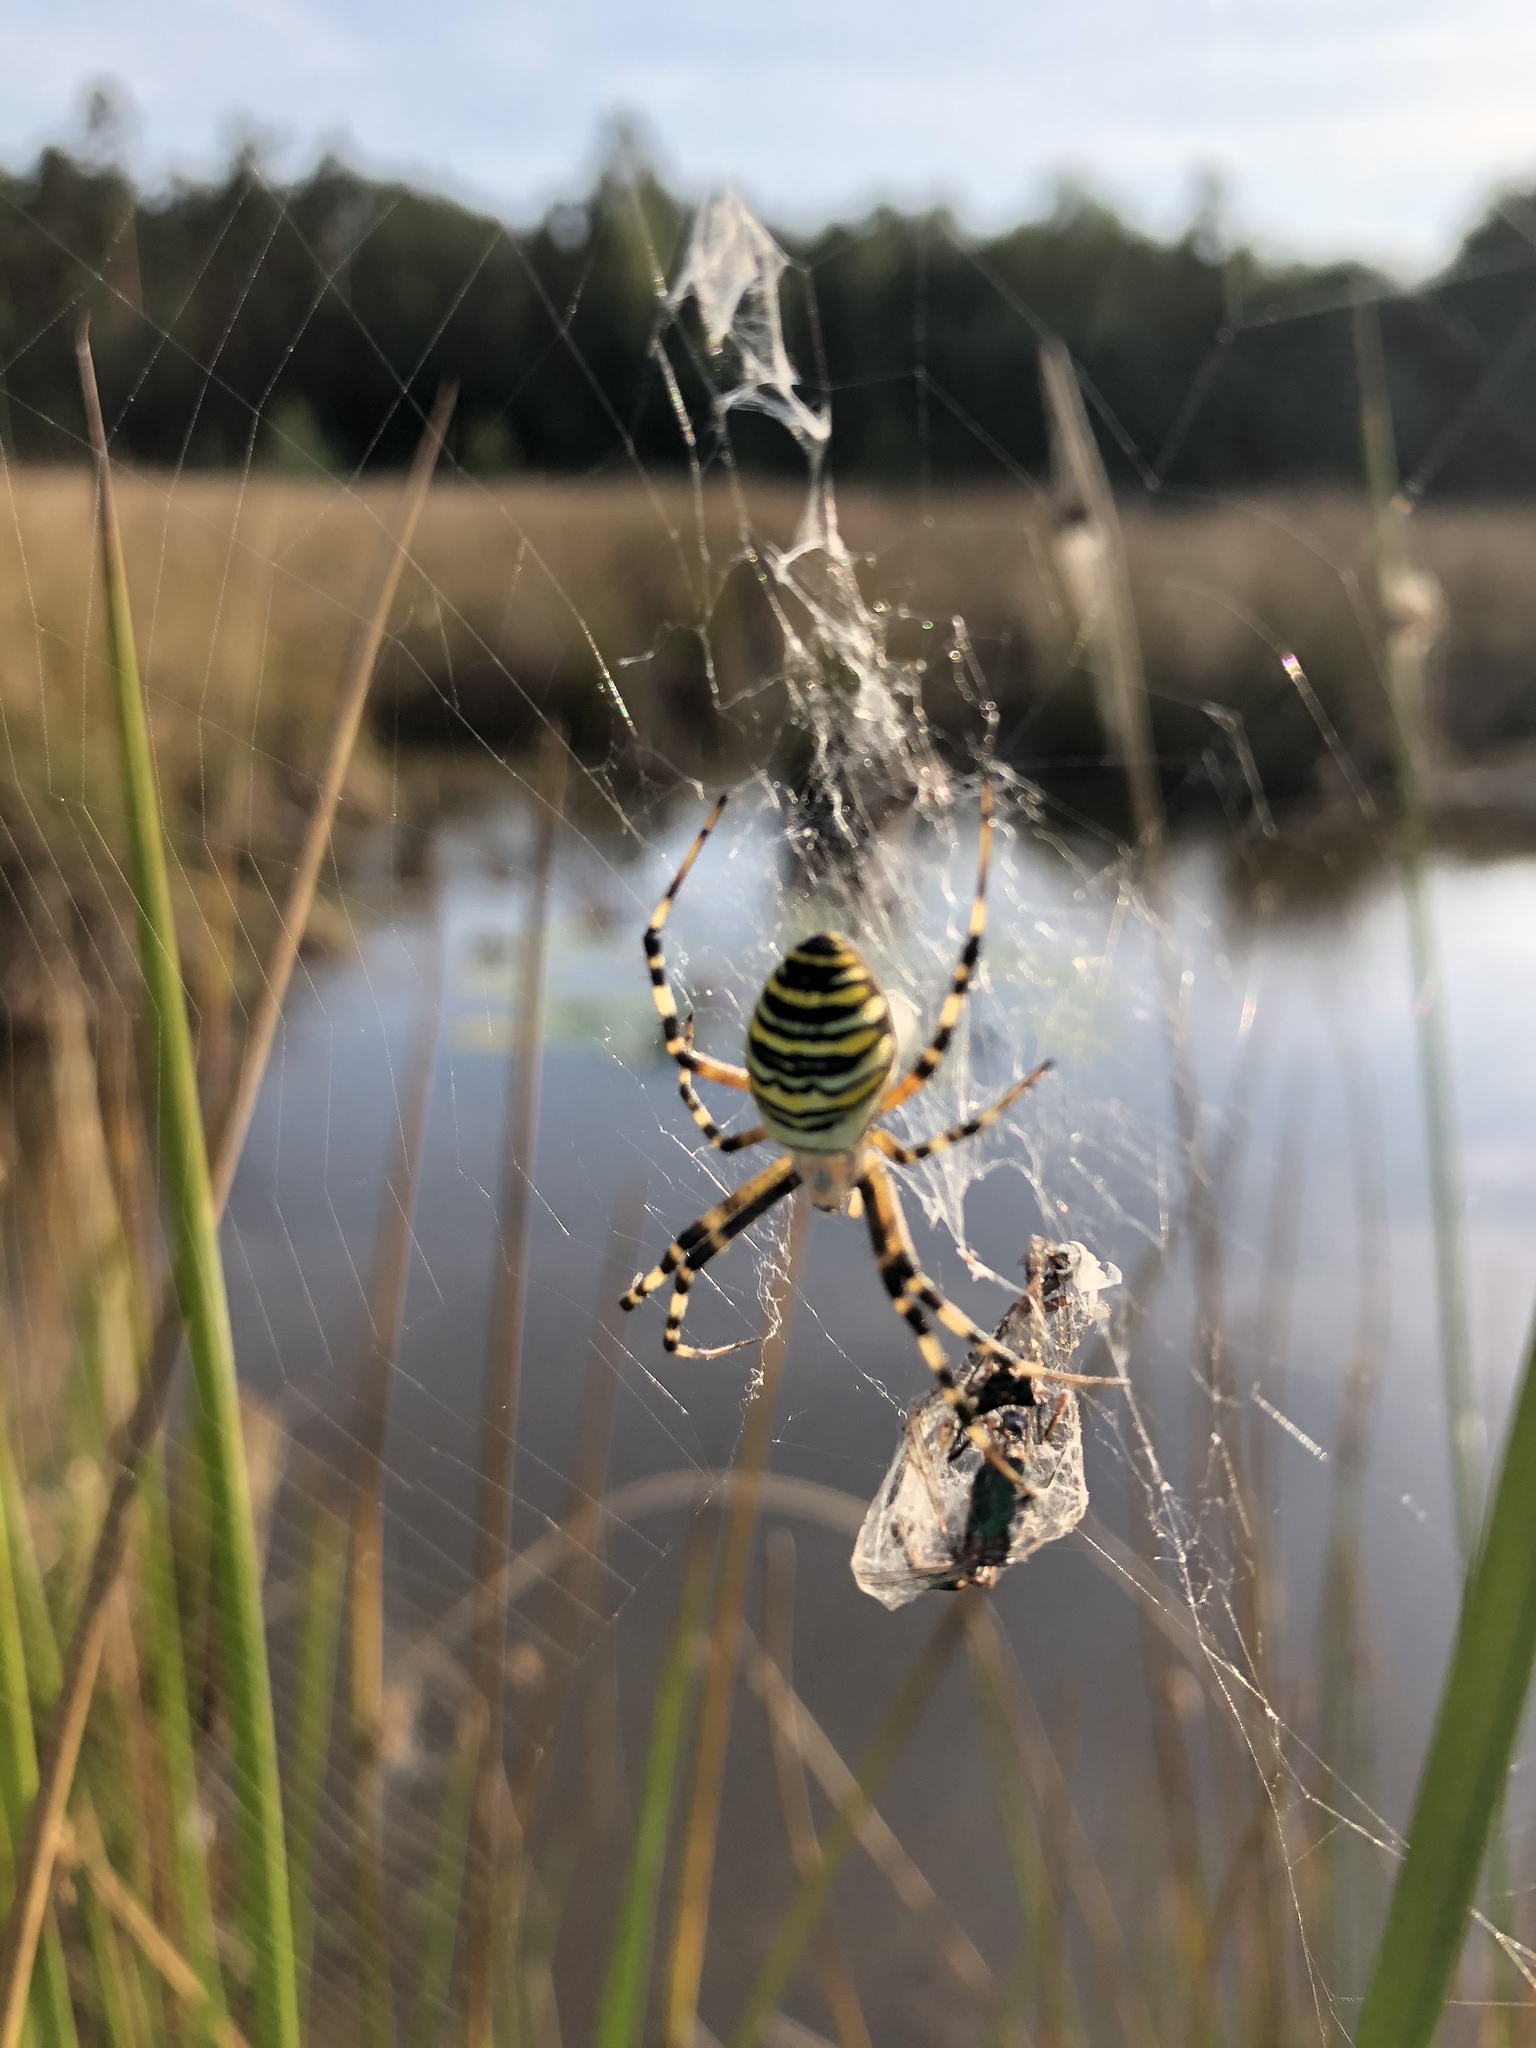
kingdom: Animalia
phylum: Arthropoda
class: Arachnida
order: Araneae
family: Araneidae
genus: Argiope
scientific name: Argiope bruennichi
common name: Wasp spider
